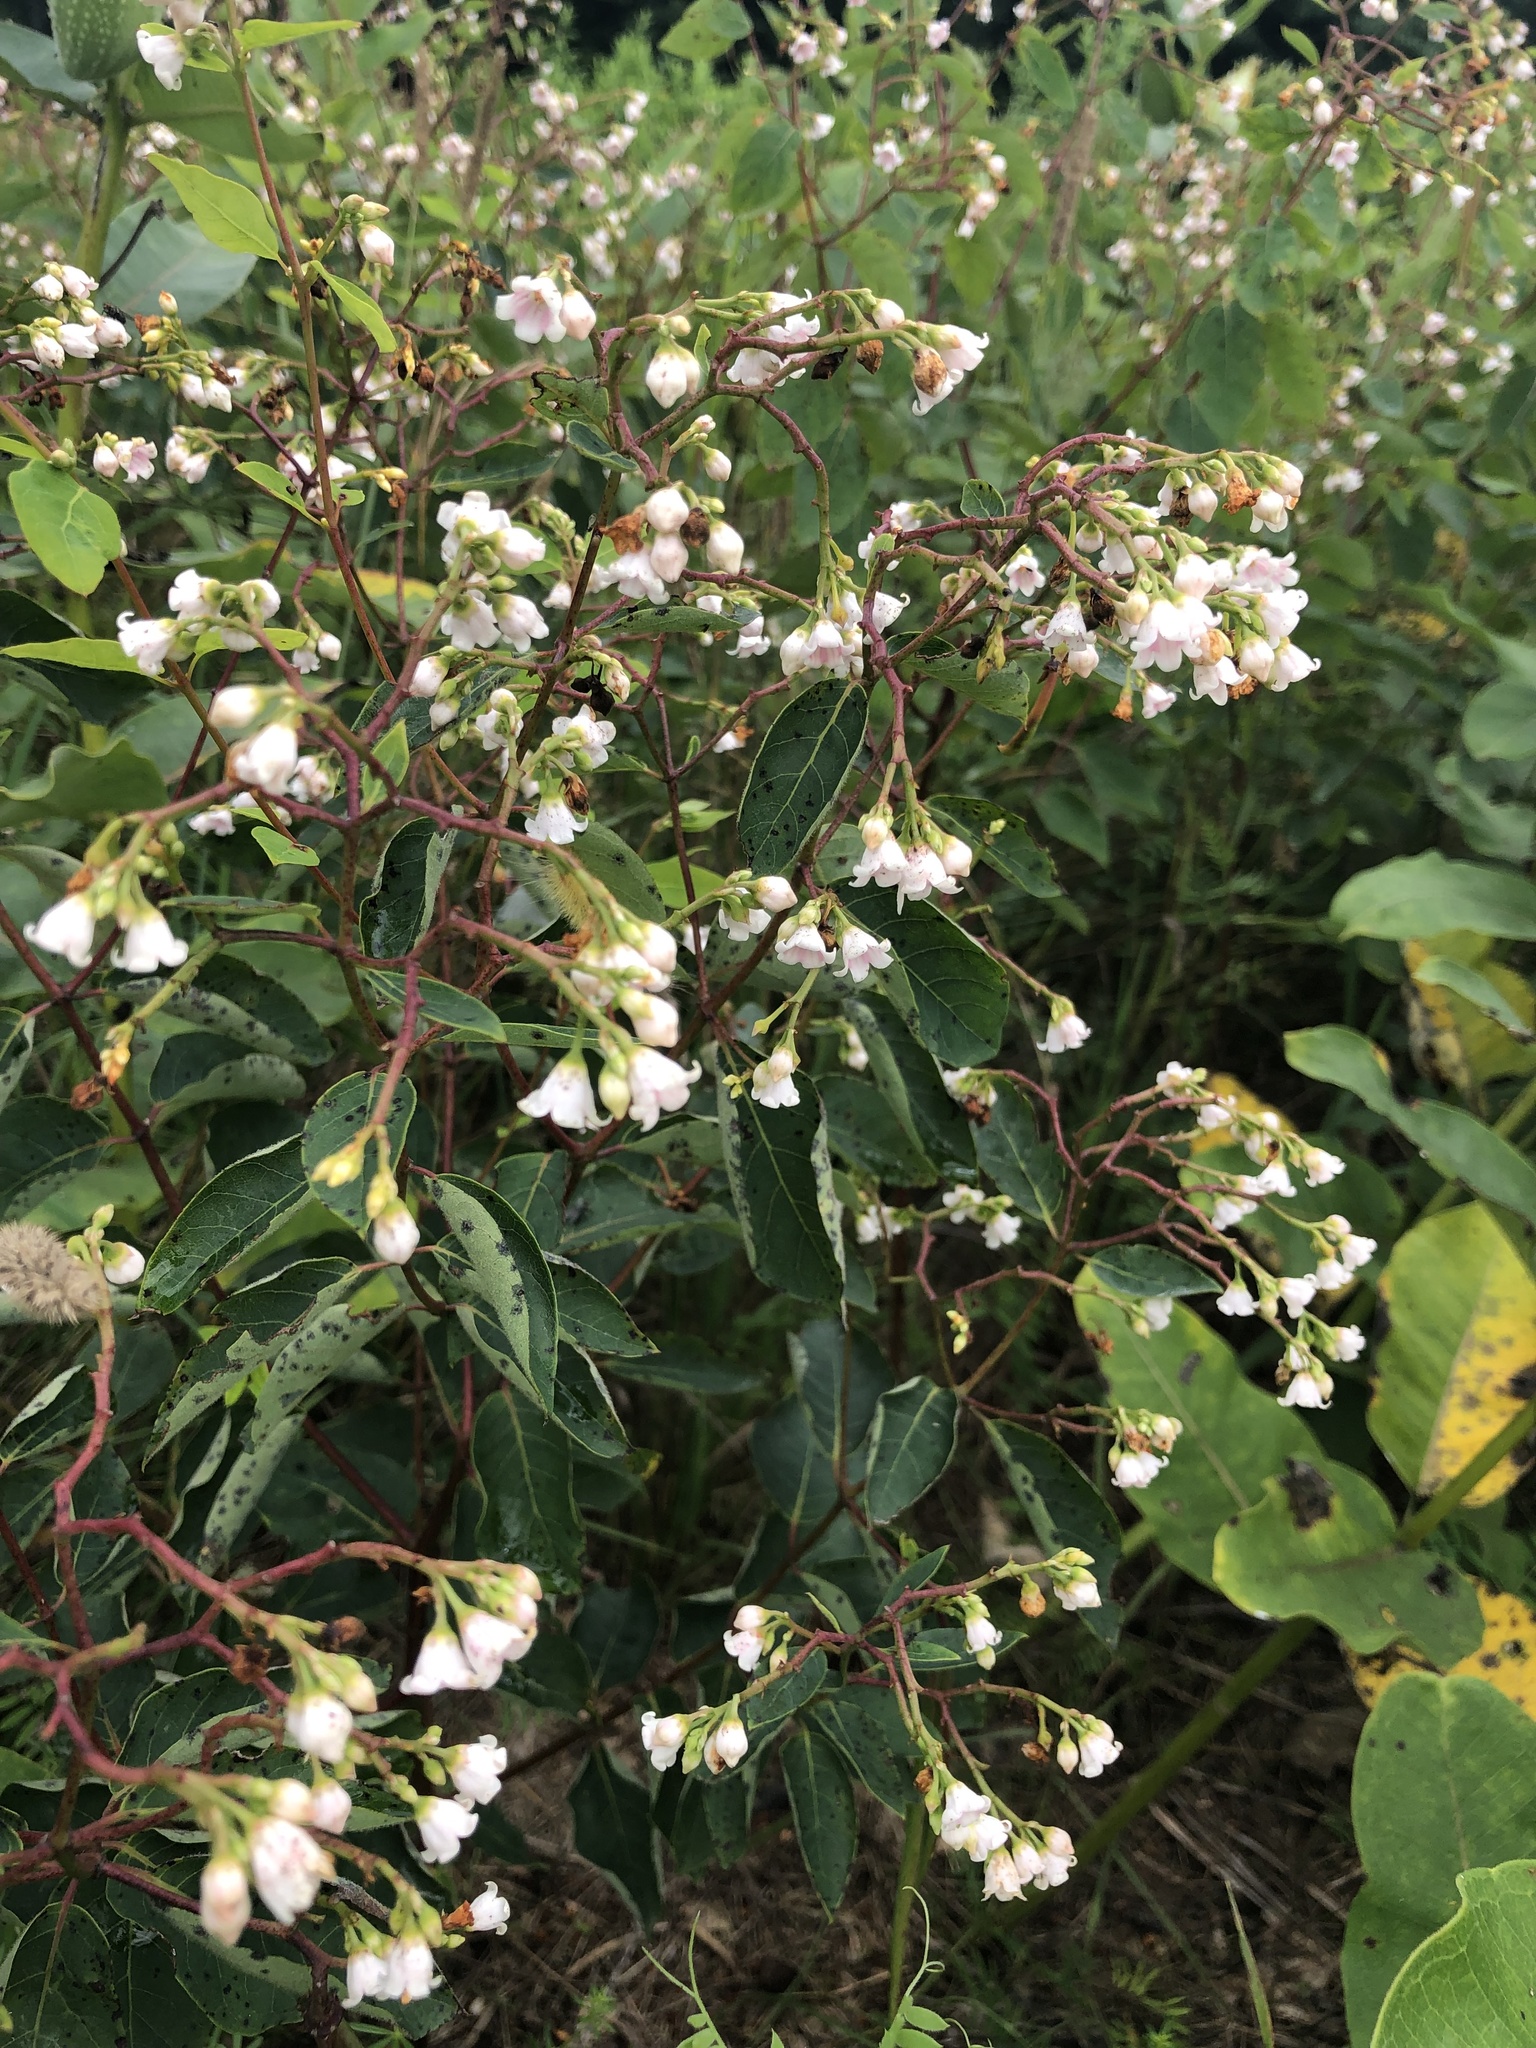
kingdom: Plantae
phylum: Tracheophyta
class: Magnoliopsida
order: Gentianales
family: Apocynaceae
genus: Apocynum
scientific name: Apocynum androsaemifolium
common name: Spreading dogbane
